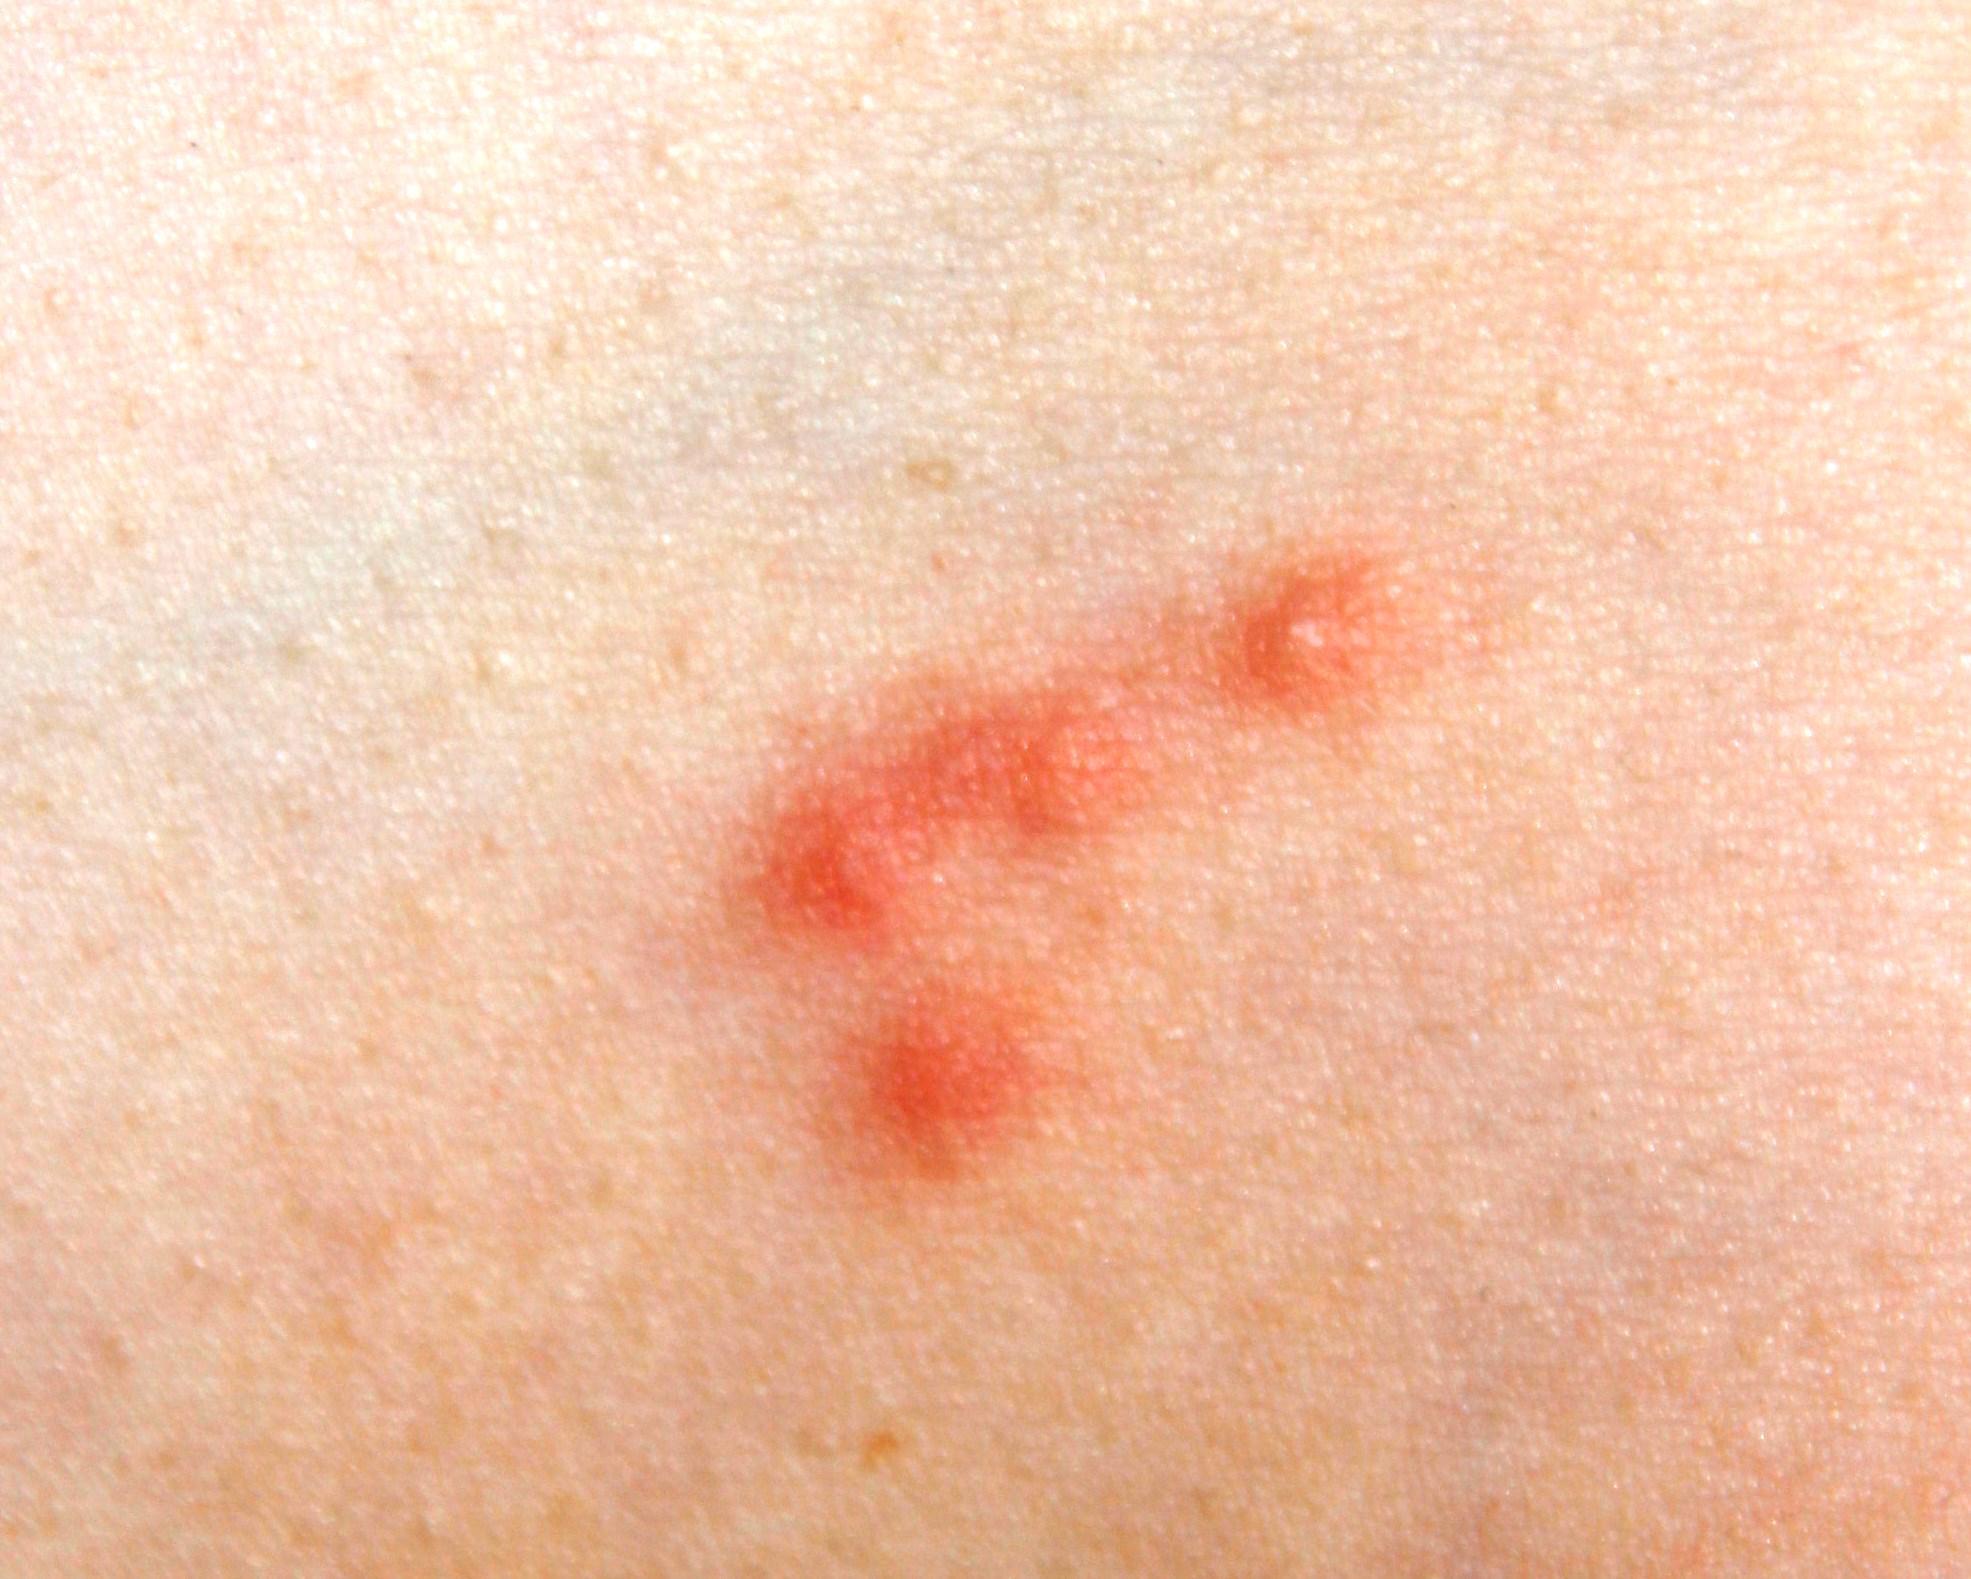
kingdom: Animalia
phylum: Arthropoda
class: Insecta
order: Hemiptera
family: Cimicidae
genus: Cimex
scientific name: Cimex lectularius
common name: Bed bug
